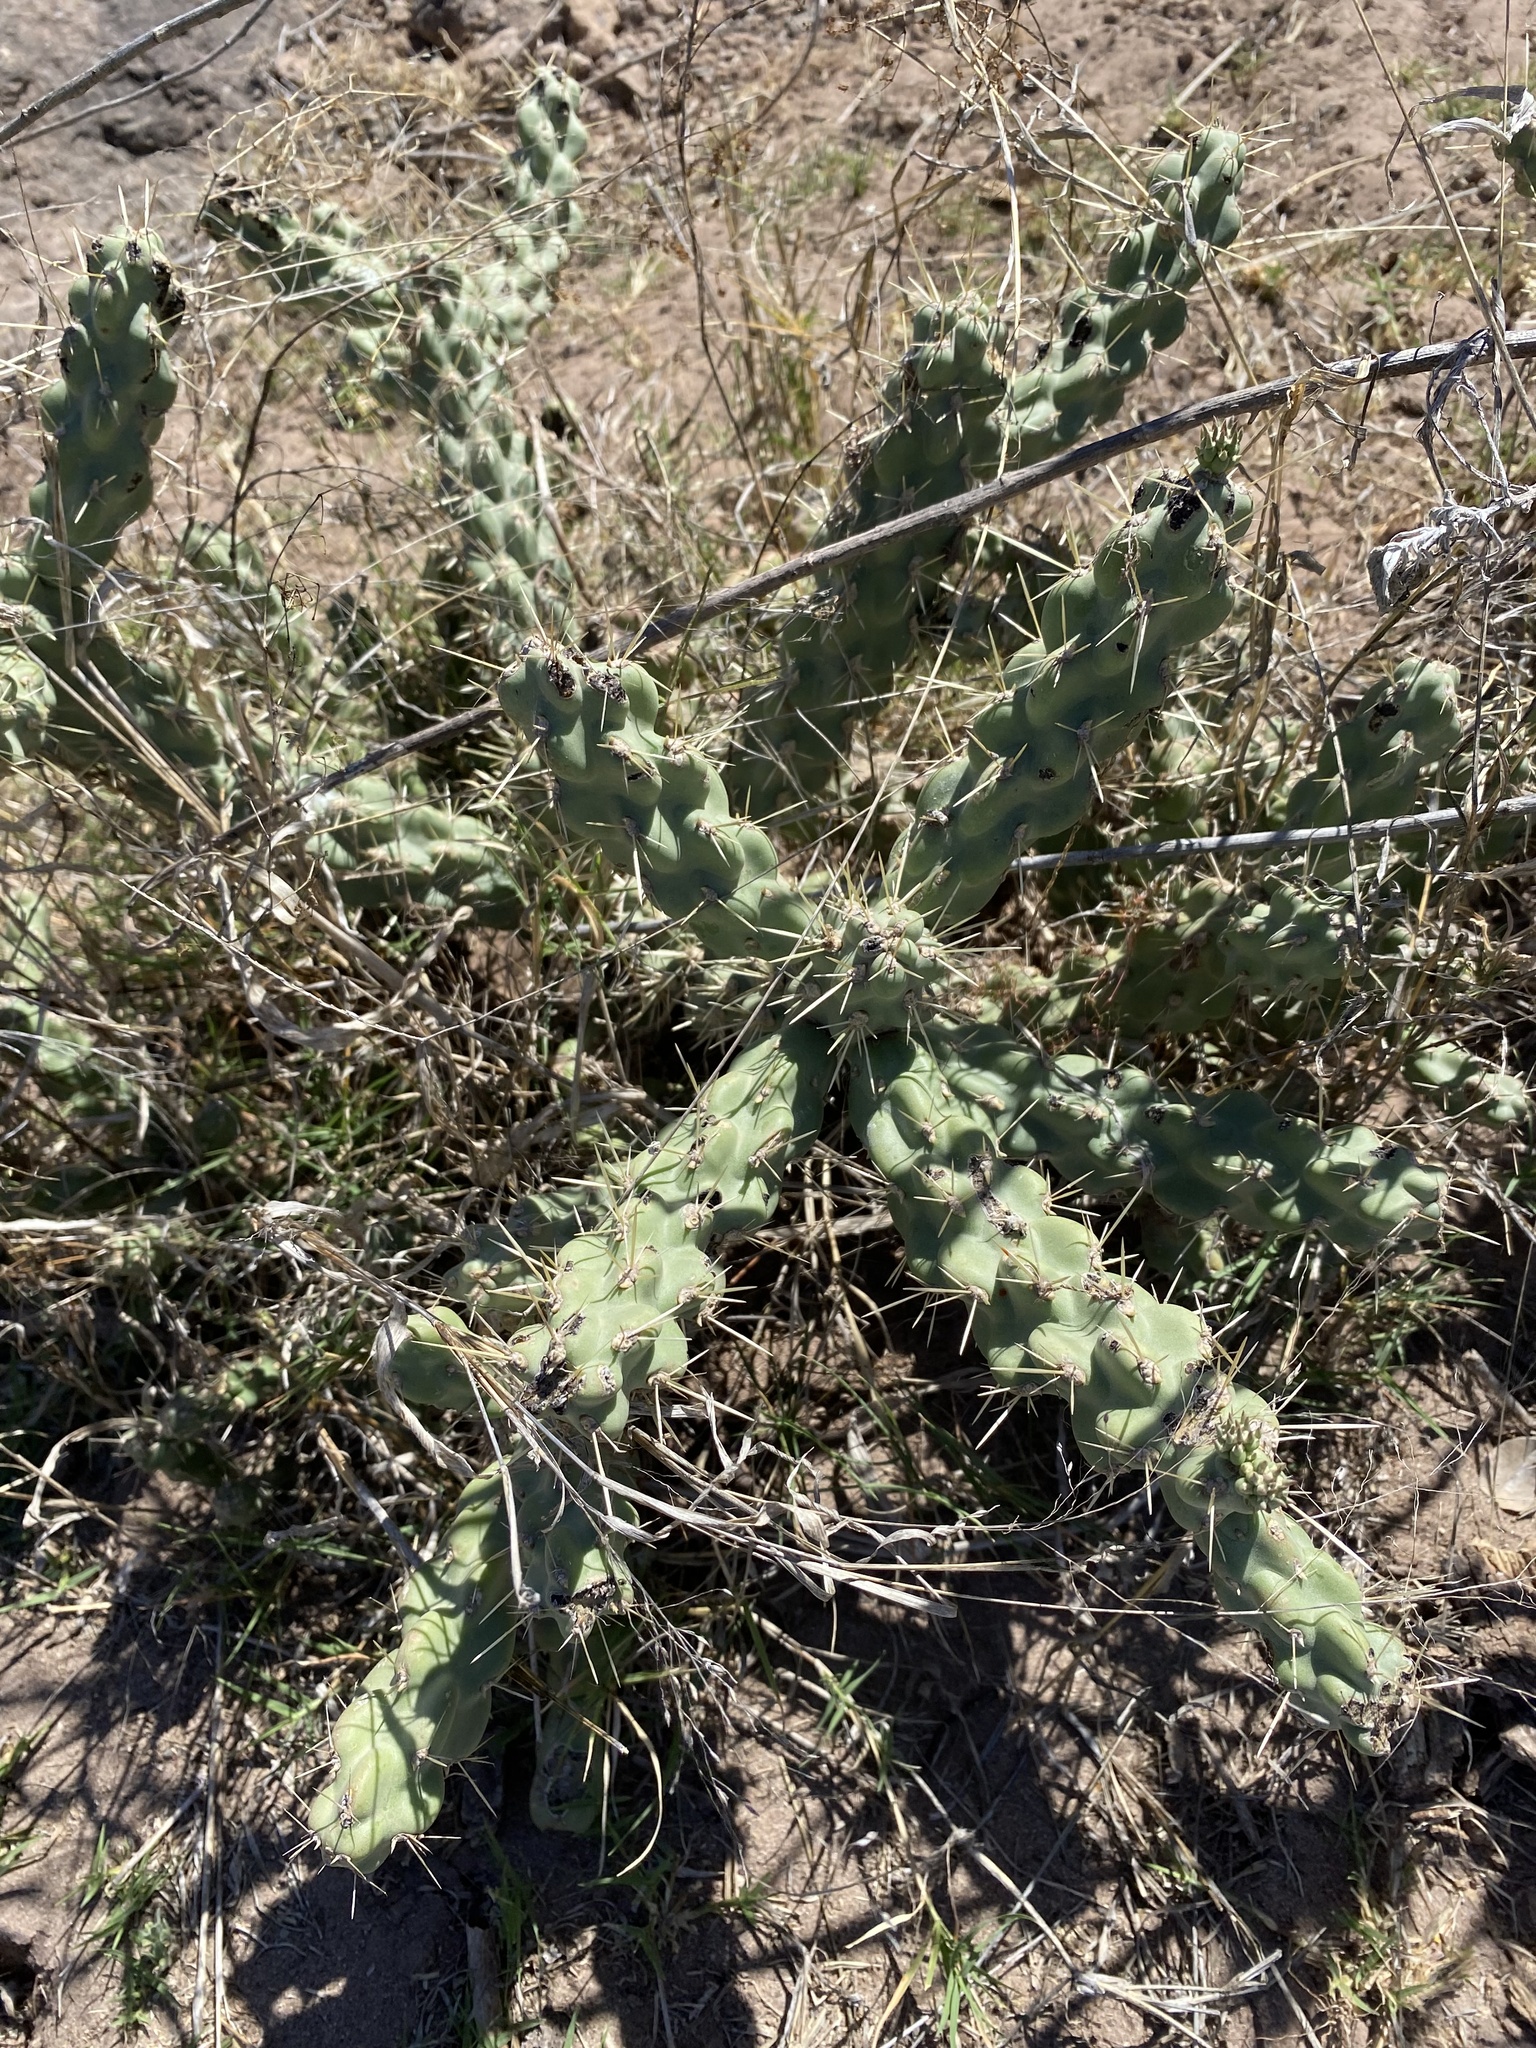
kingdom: Plantae
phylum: Tracheophyta
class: Magnoliopsida
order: Caryophyllales
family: Cactaceae
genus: Cylindropuntia
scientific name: Cylindropuntia fulgida
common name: Jumping cholla
